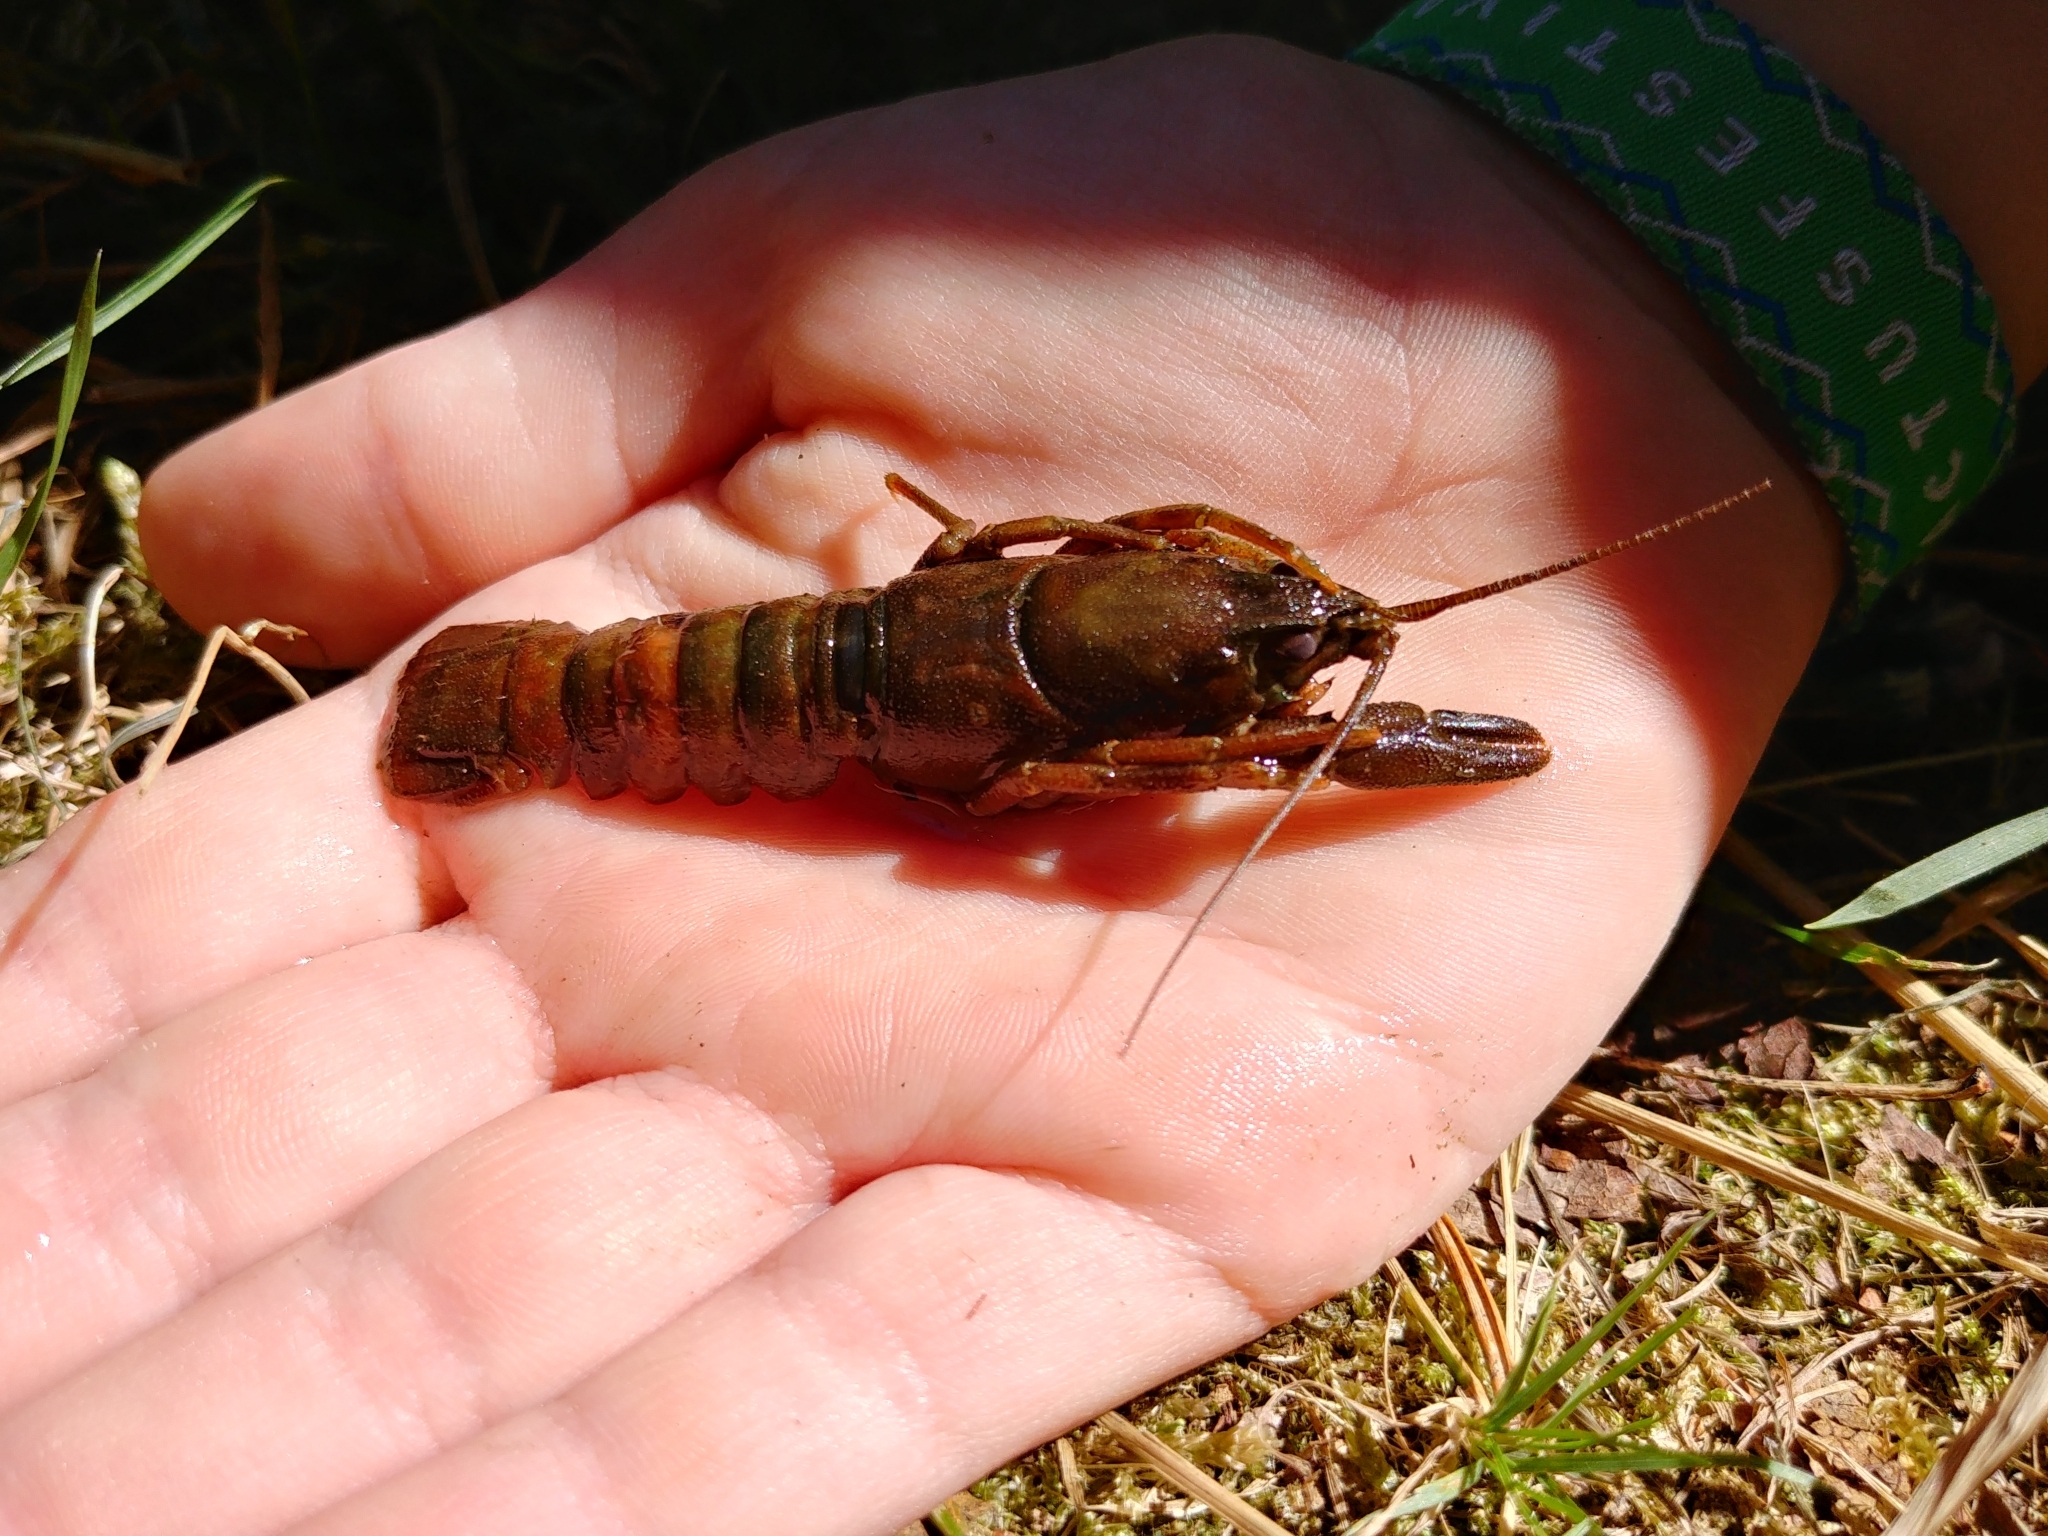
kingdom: Animalia
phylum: Arthropoda
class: Malacostraca
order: Decapoda
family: Astacidae
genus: Pacifastacus
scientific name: Pacifastacus leniusculus
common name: Signal crayfish
